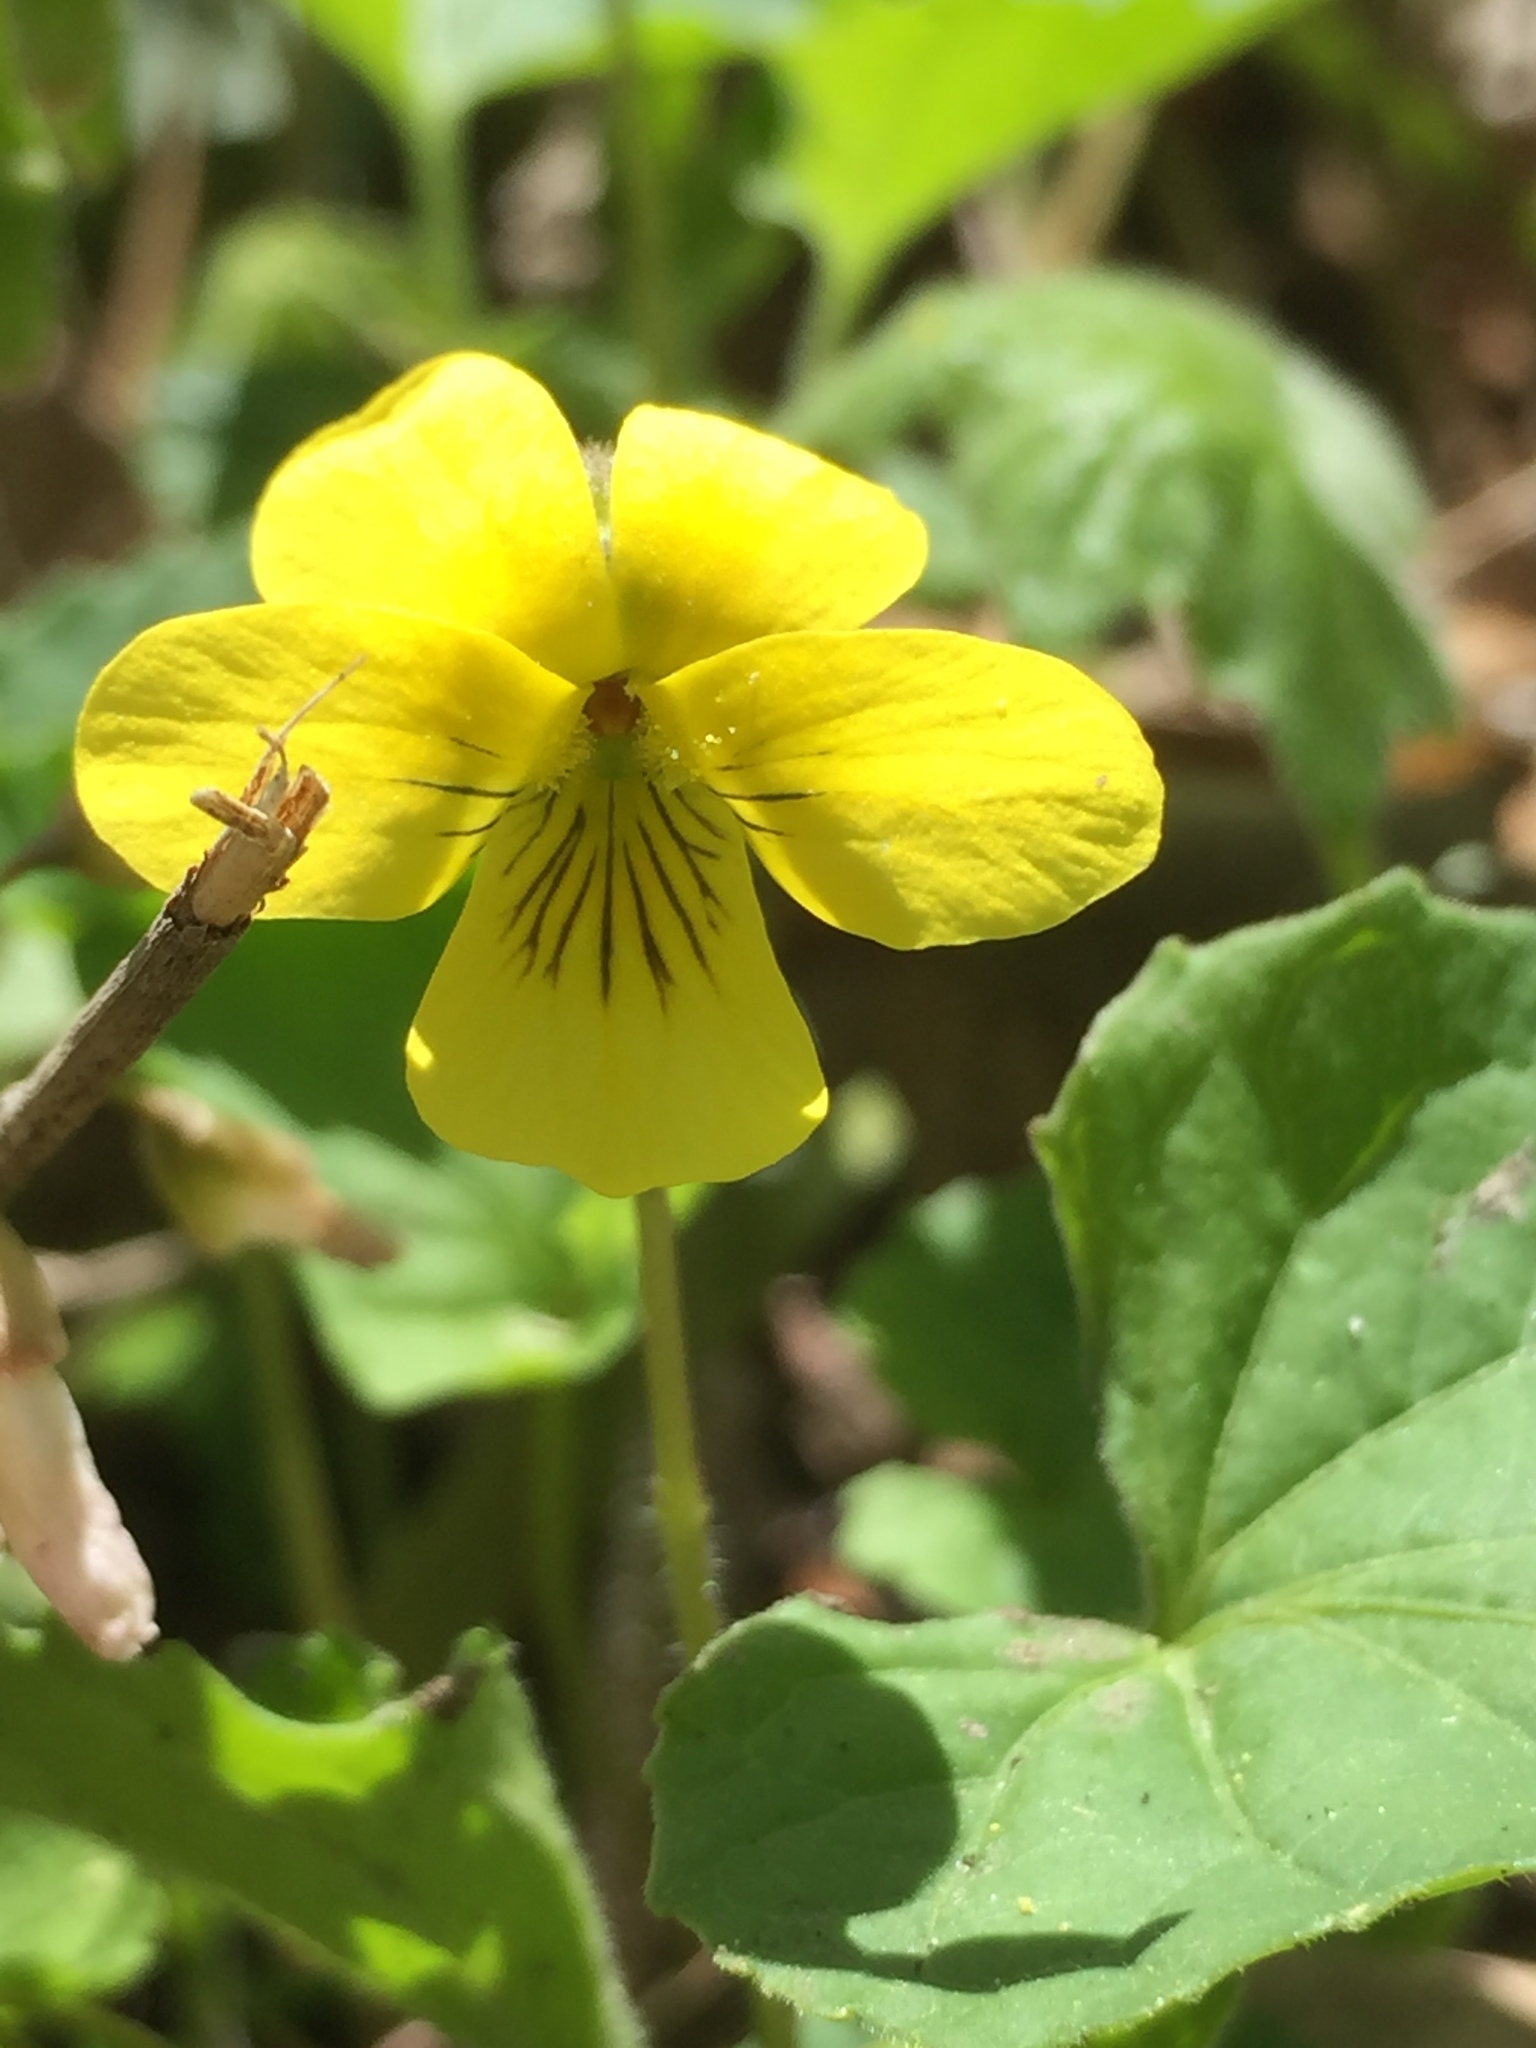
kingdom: Plantae
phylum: Tracheophyta
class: Magnoliopsida
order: Malpighiales
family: Violaceae
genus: Viola
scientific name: Viola eriocarpa
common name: Smooth yellow violet
